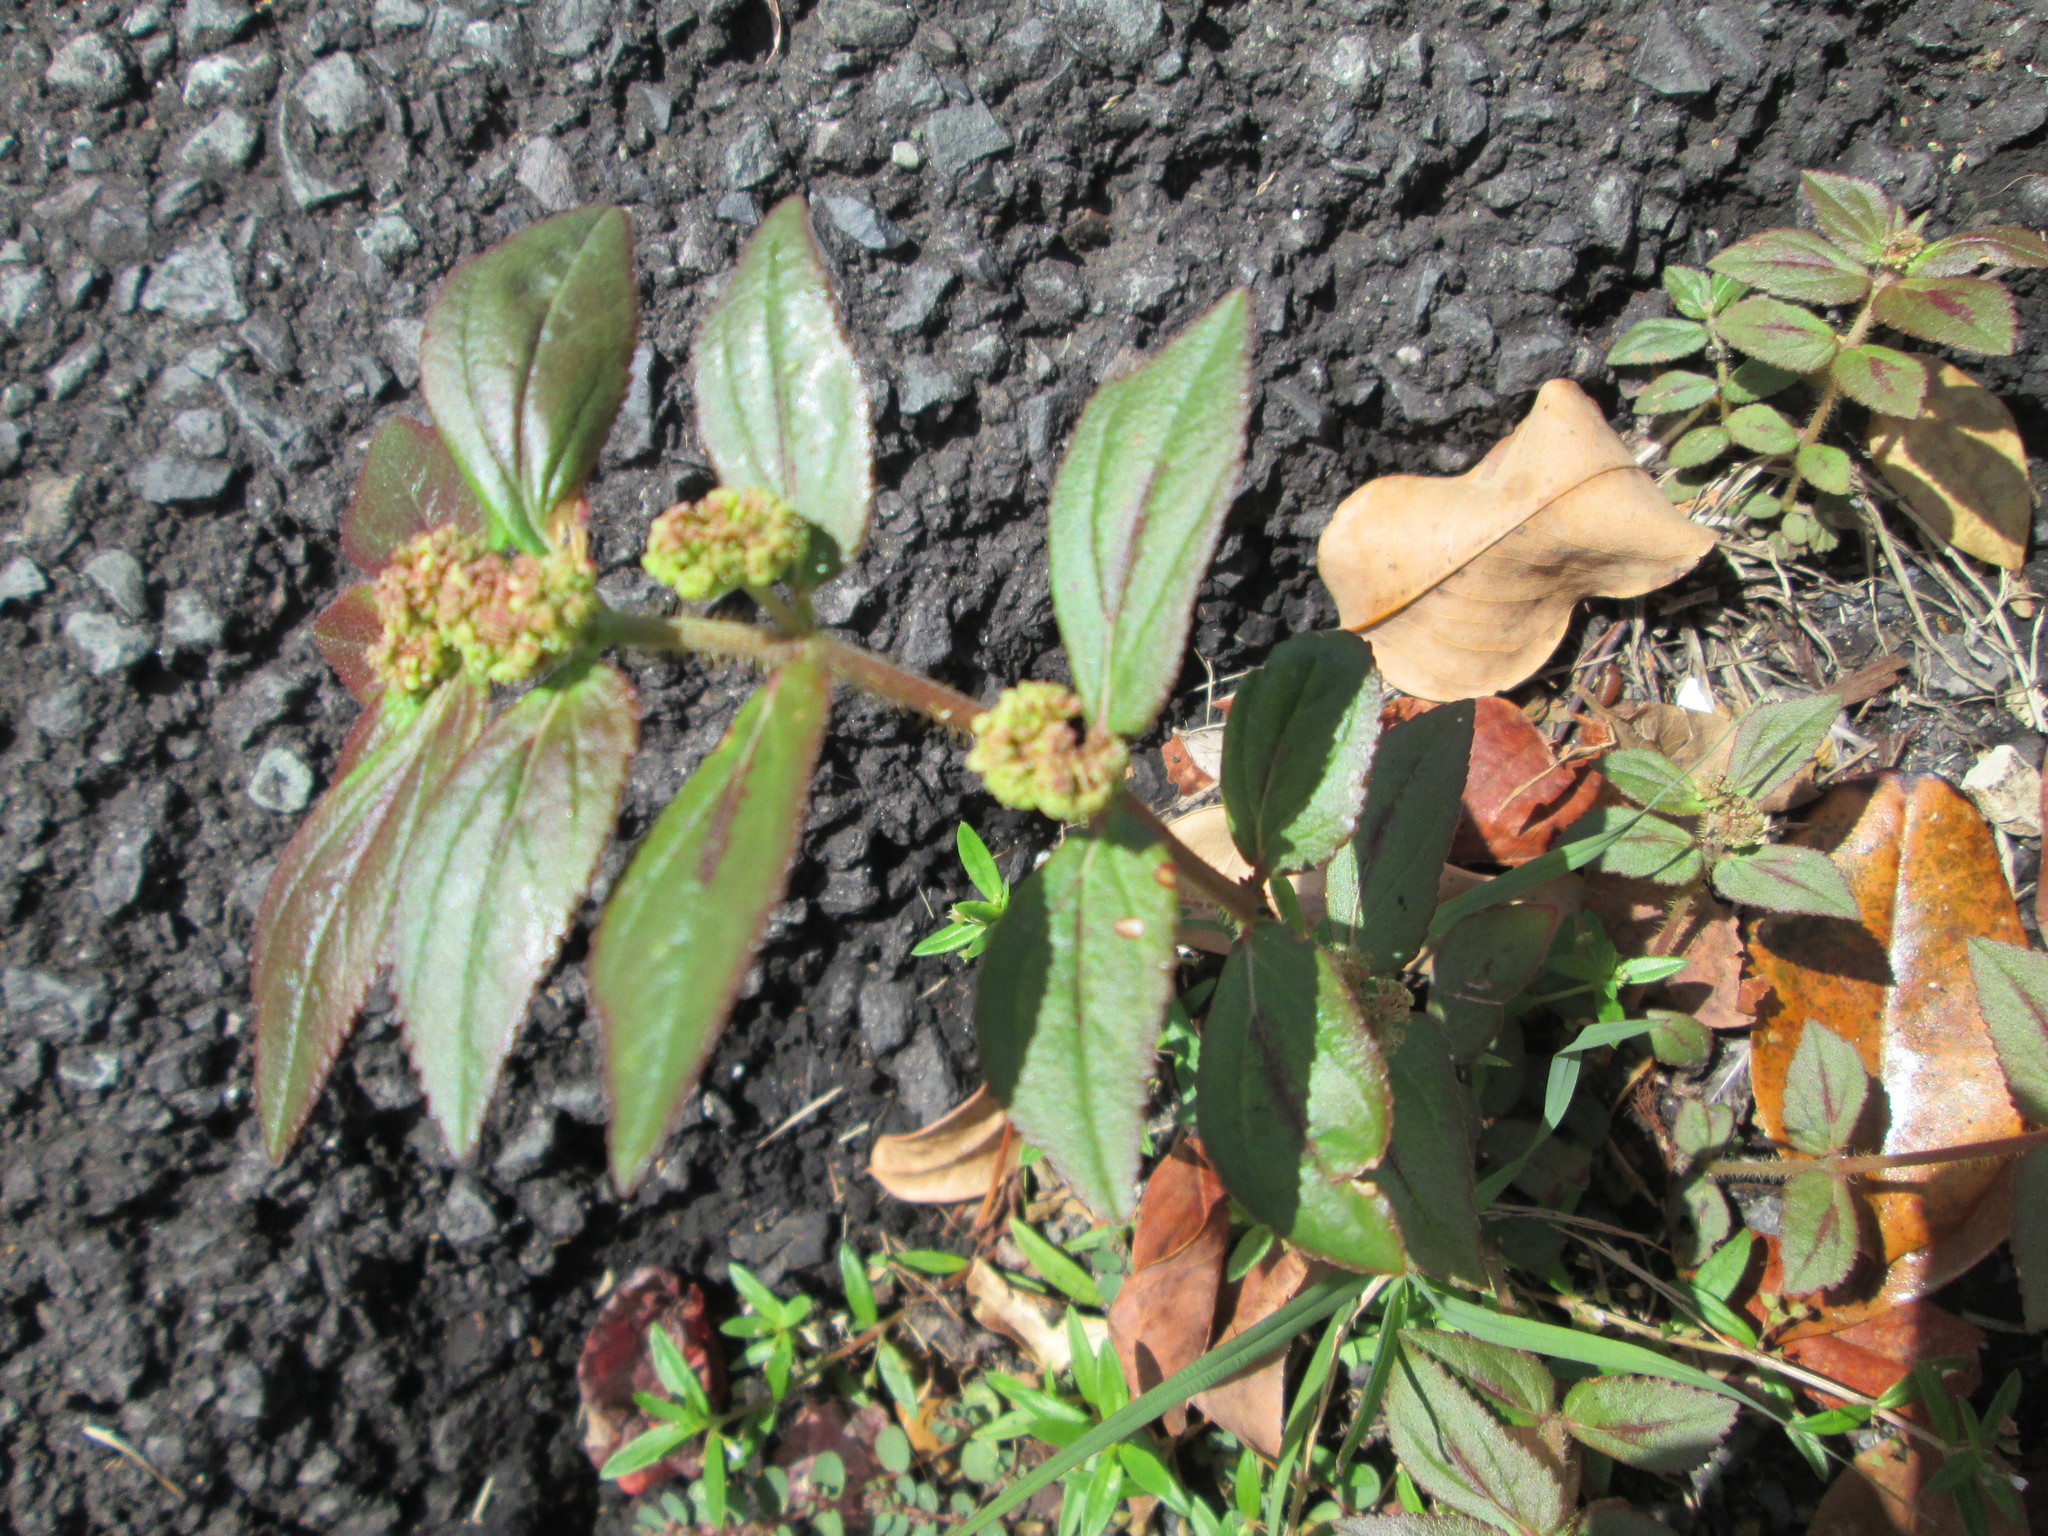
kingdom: Plantae
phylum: Tracheophyta
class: Magnoliopsida
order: Malpighiales
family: Euphorbiaceae
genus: Euphorbia
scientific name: Euphorbia hirta
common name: Pillpod sandmat
